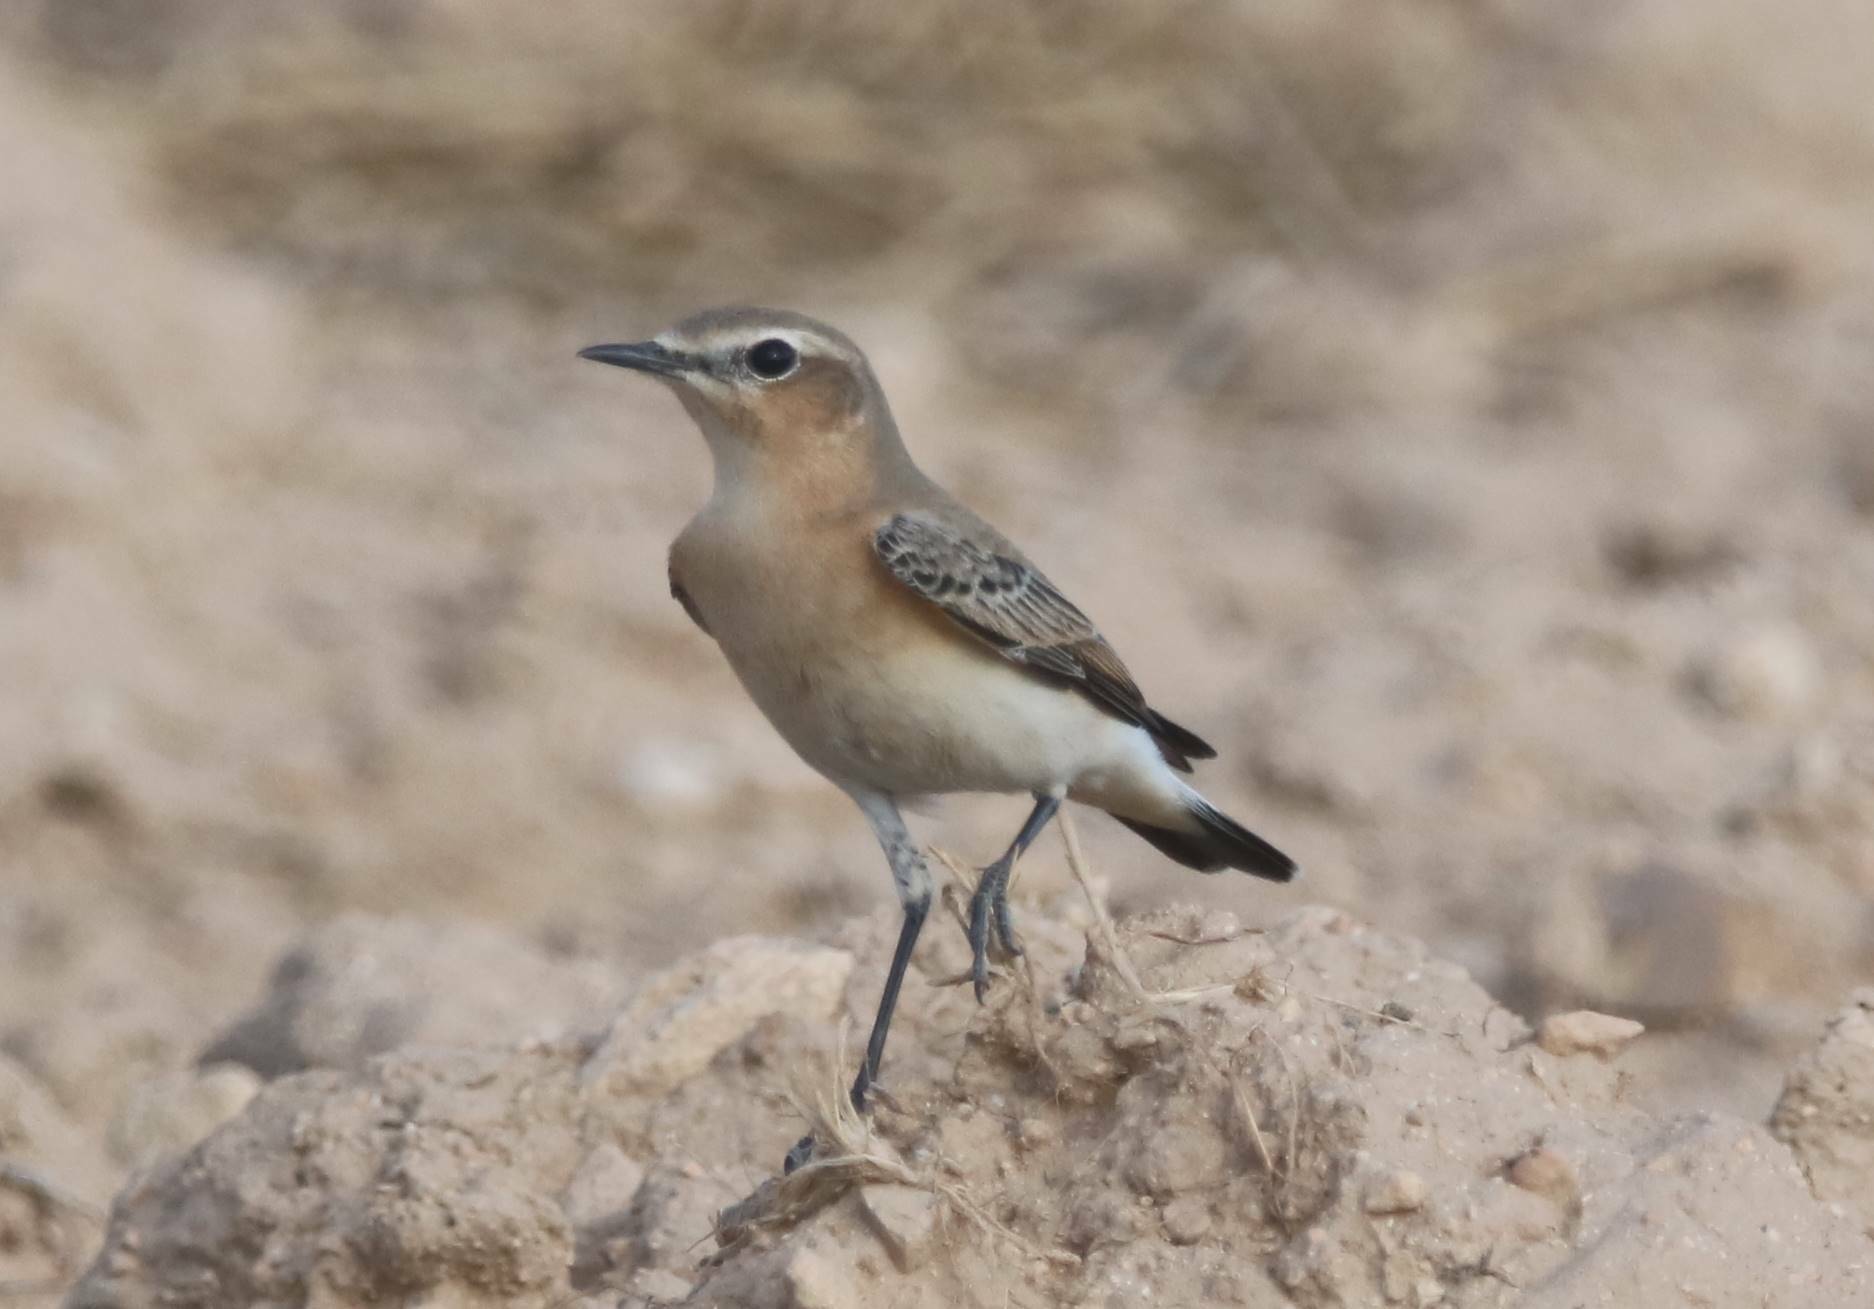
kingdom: Animalia
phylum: Chordata
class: Aves
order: Passeriformes
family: Muscicapidae
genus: Oenanthe
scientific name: Oenanthe oenanthe
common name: Northern wheatear
